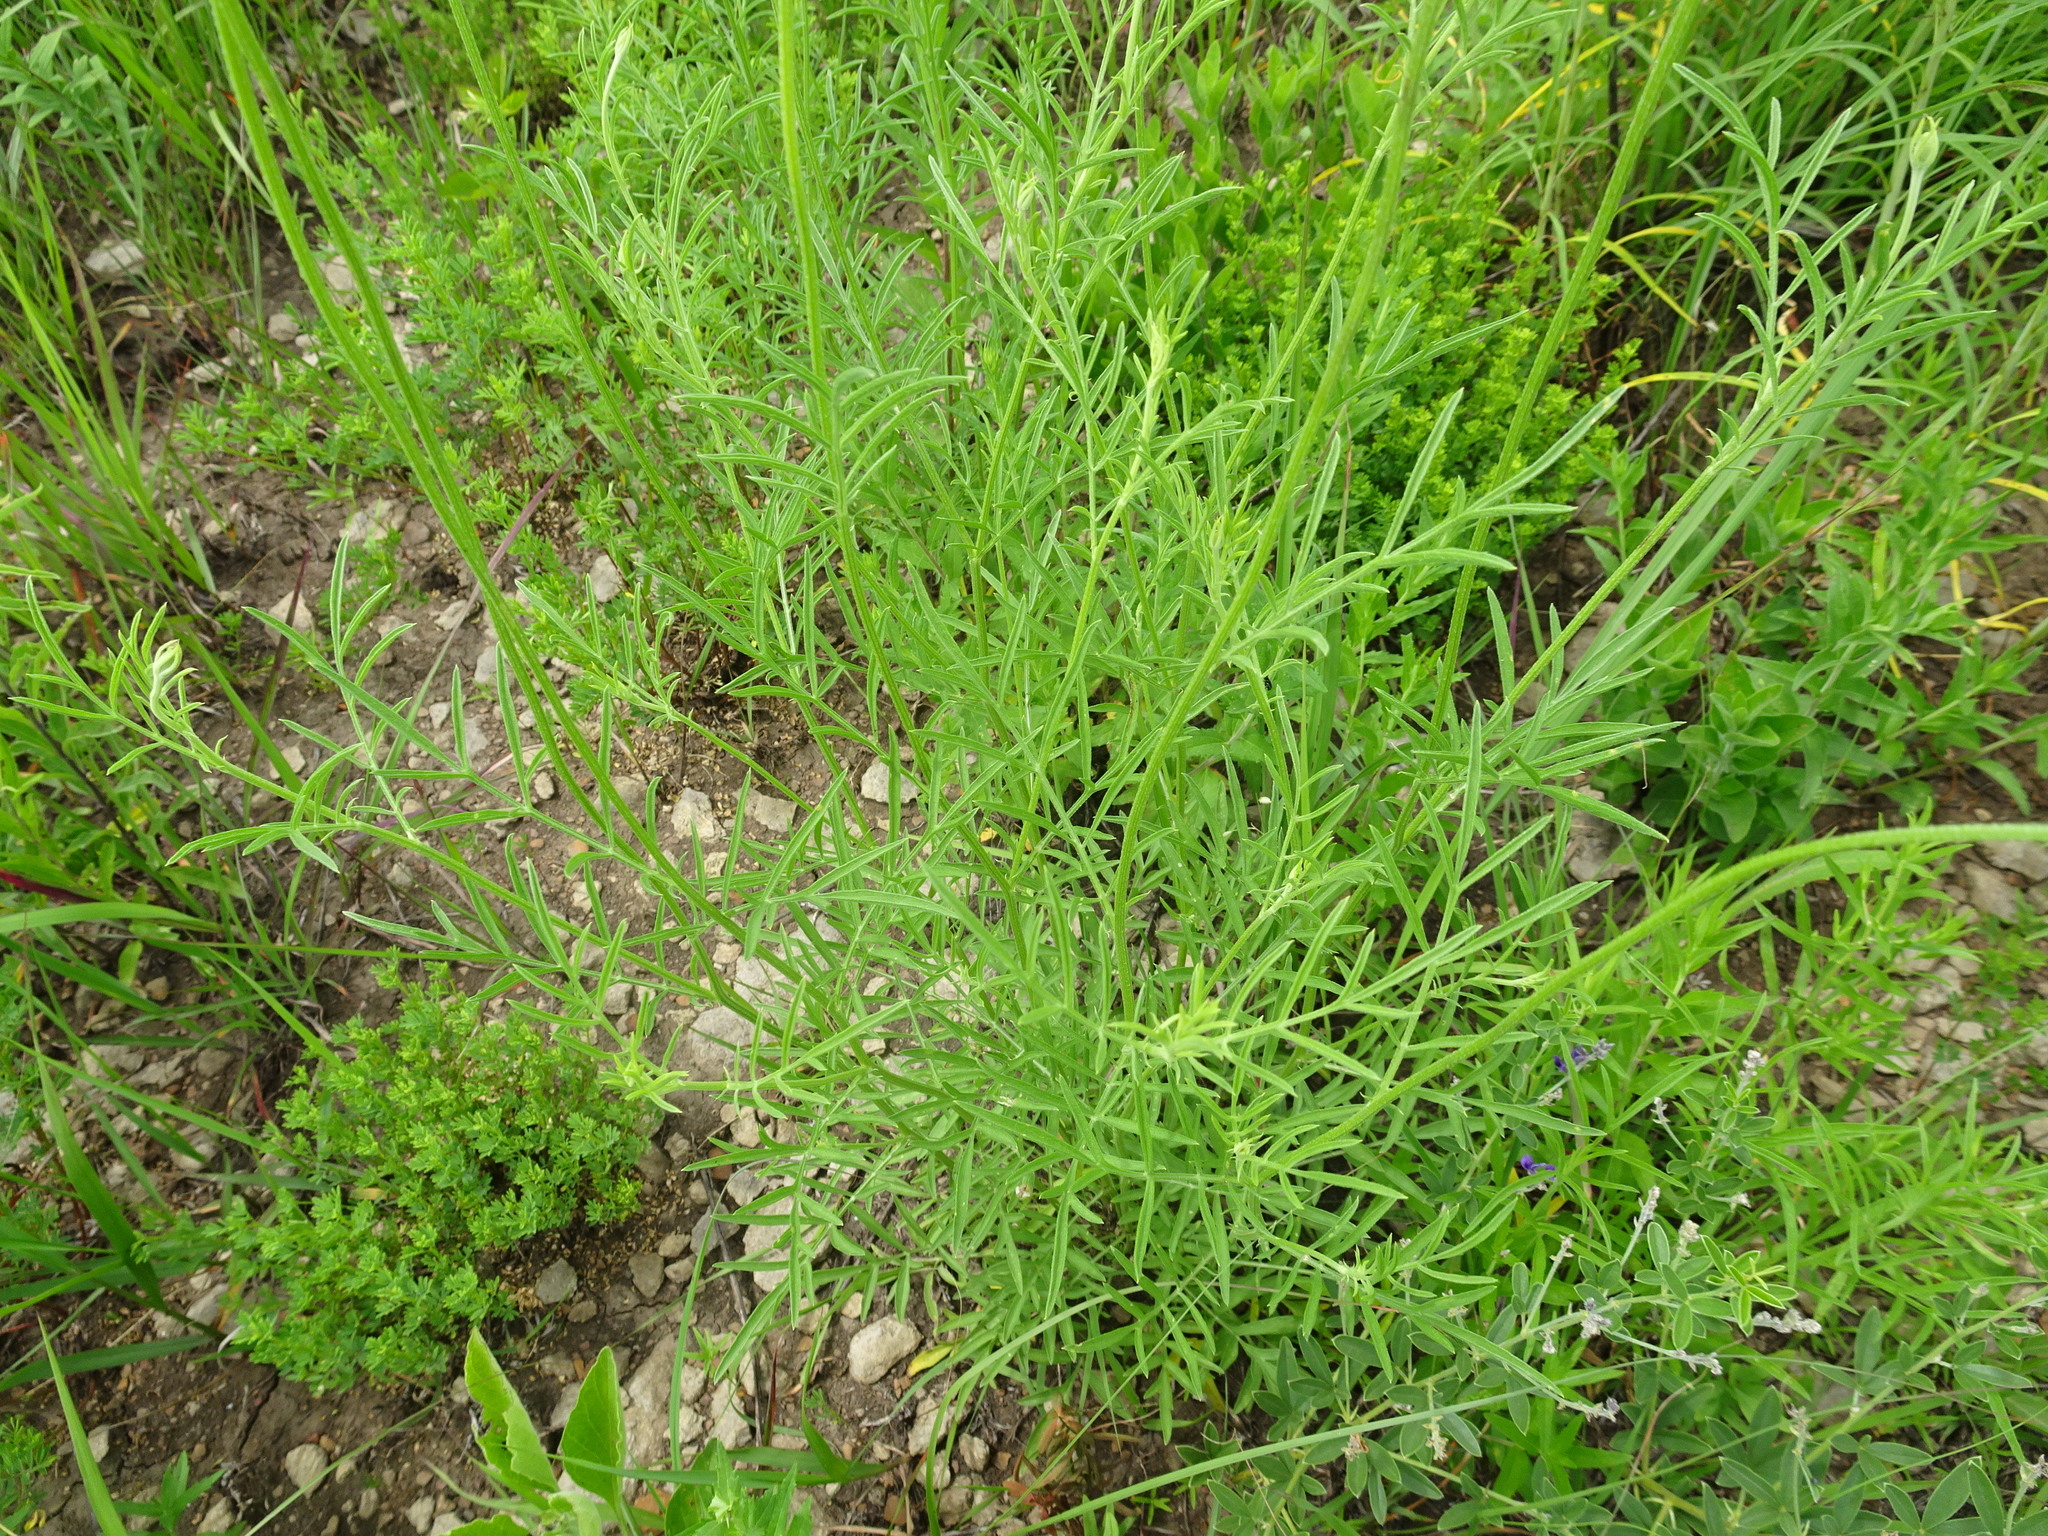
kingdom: Plantae
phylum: Tracheophyta
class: Magnoliopsida
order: Asterales
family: Asteraceae
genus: Ratibida
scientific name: Ratibida columnifera
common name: Prairie coneflower
